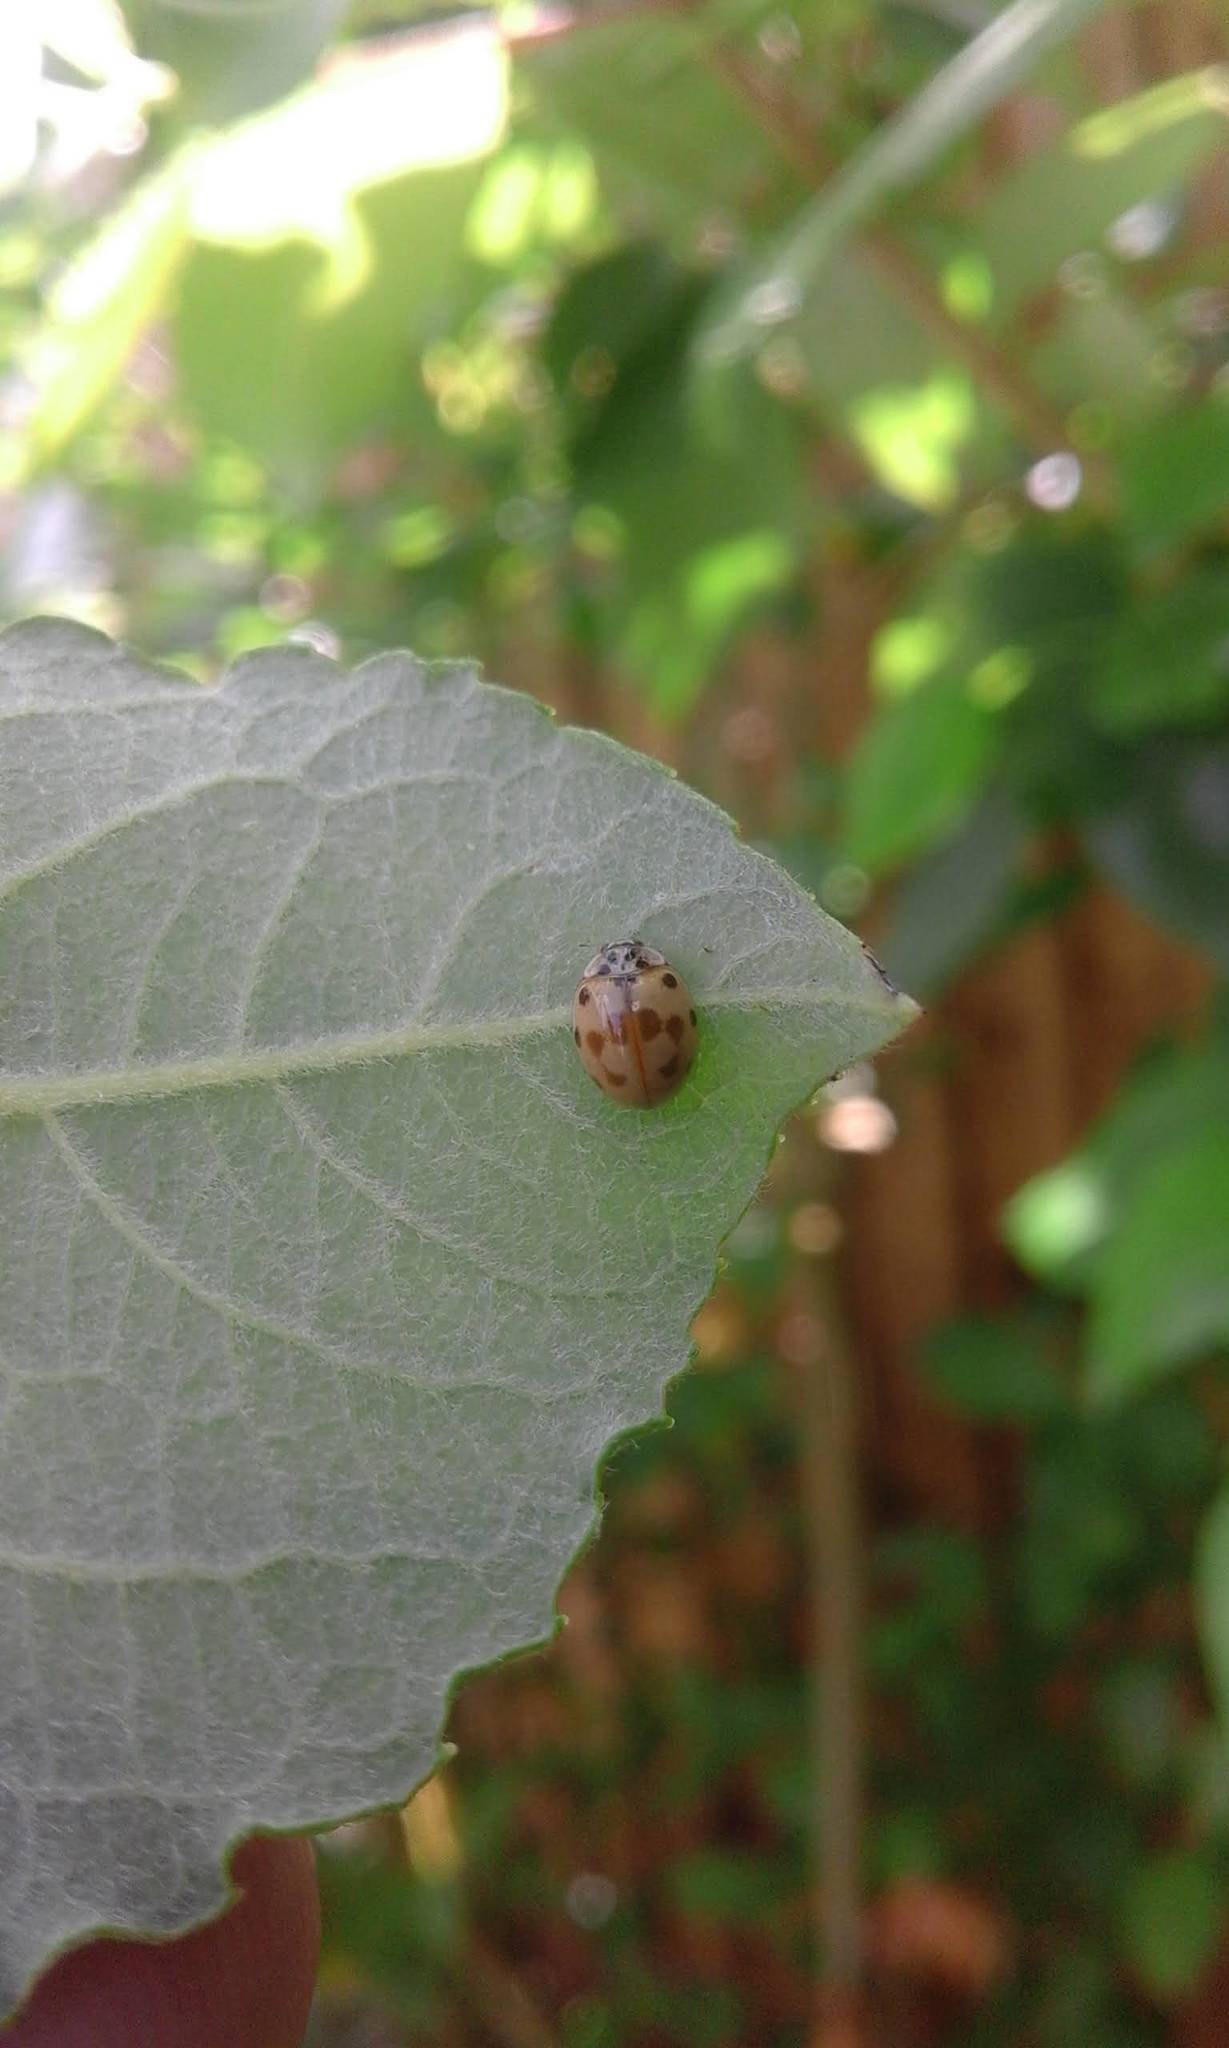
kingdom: Animalia
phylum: Arthropoda
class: Insecta
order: Coleoptera
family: Coccinellidae
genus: Adalia
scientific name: Adalia decempunctata
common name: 10-spot ladybird
